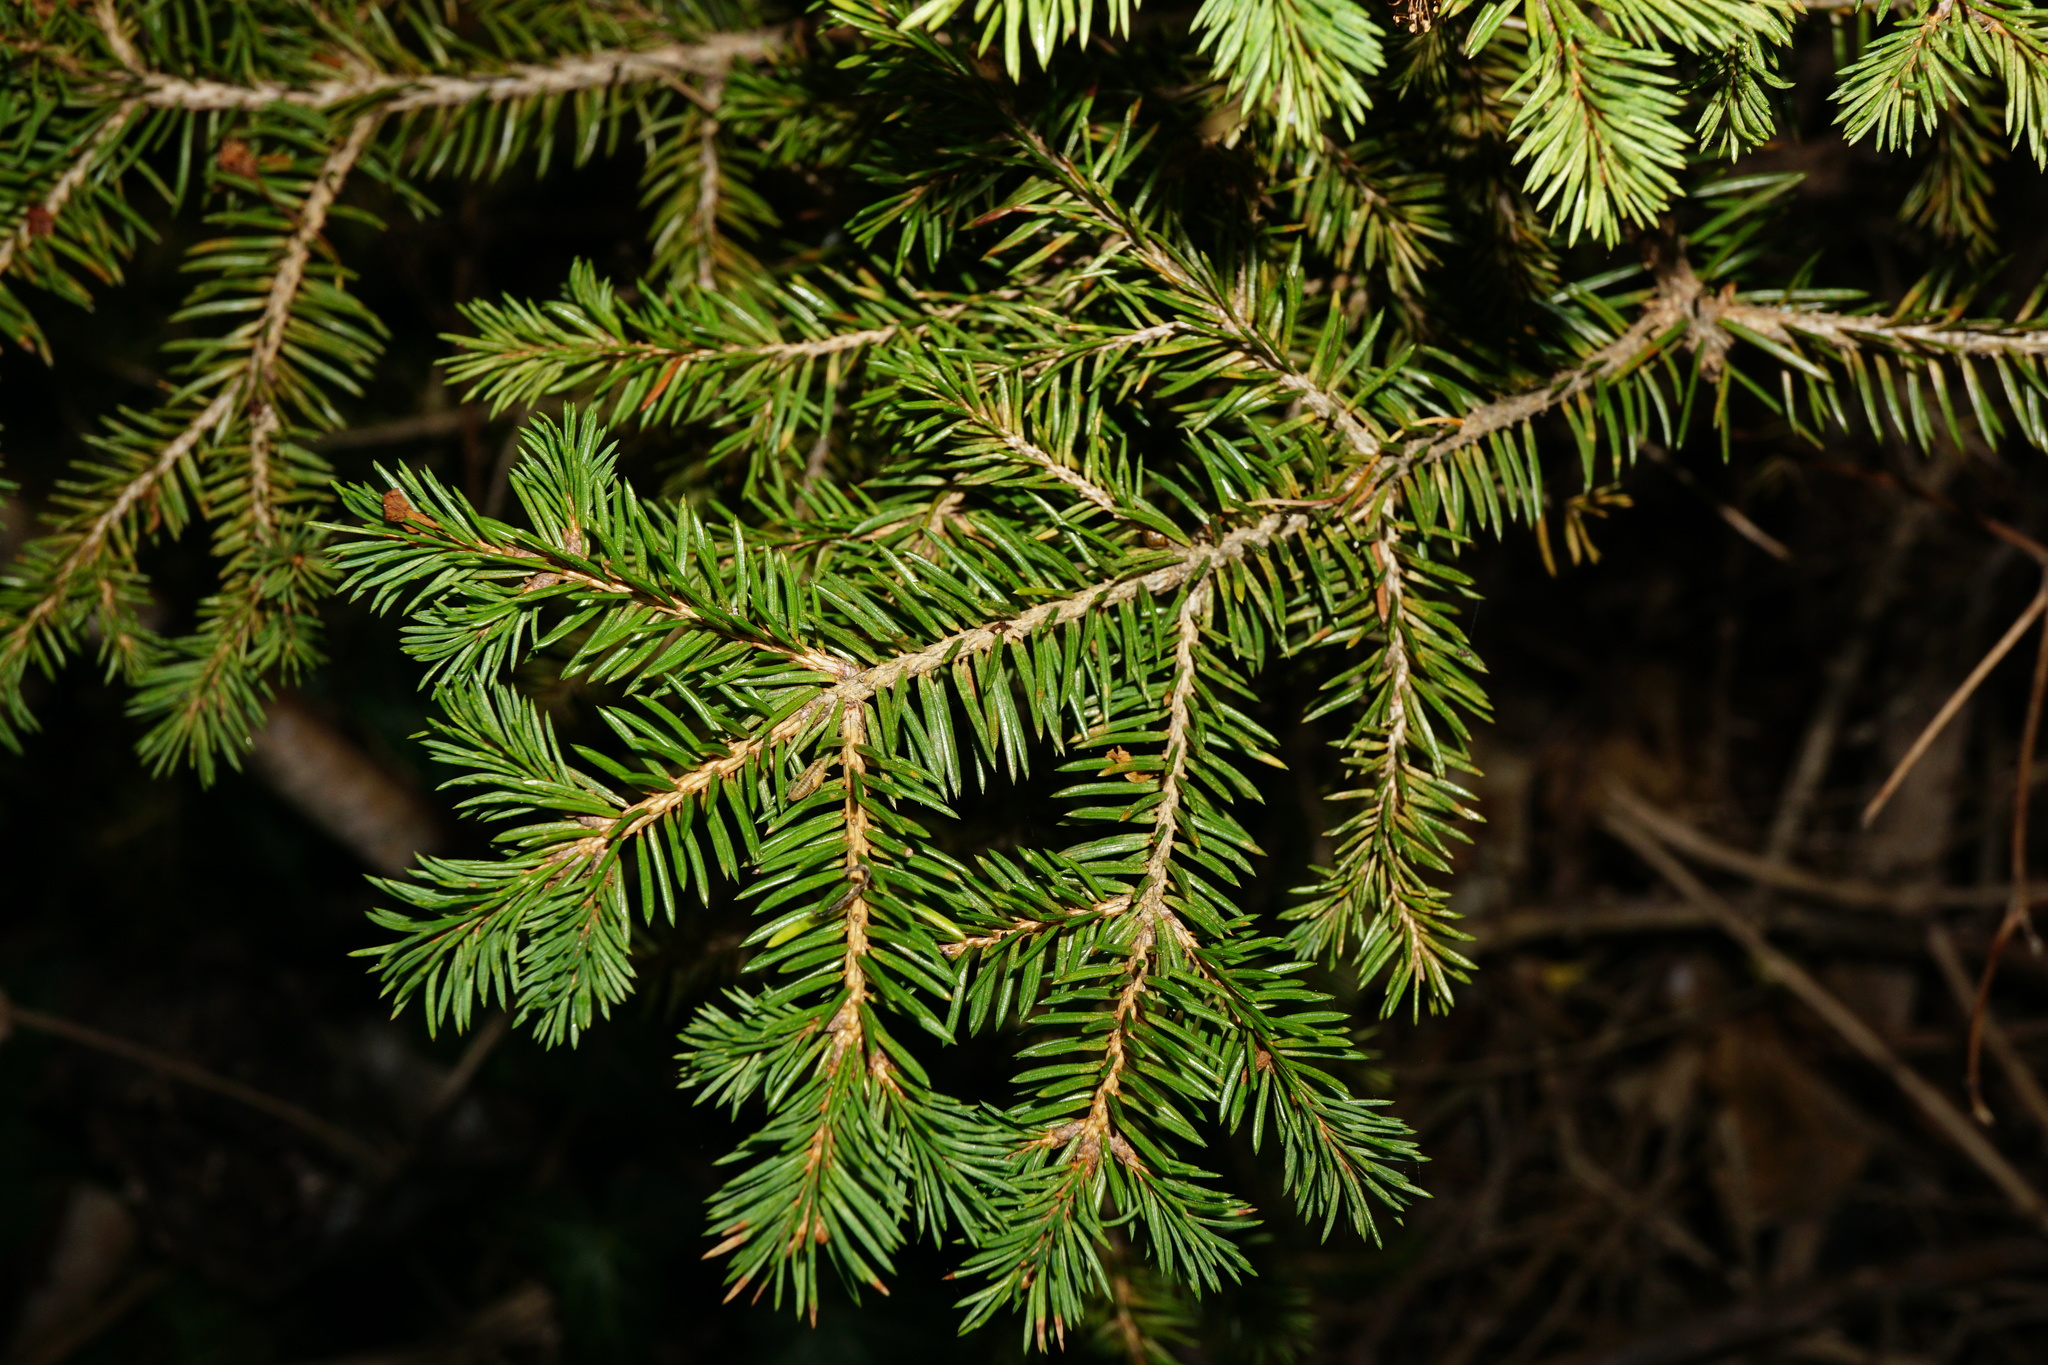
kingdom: Plantae
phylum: Tracheophyta
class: Pinopsida
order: Pinales
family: Pinaceae
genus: Picea
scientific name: Picea abies
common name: Norway spruce
